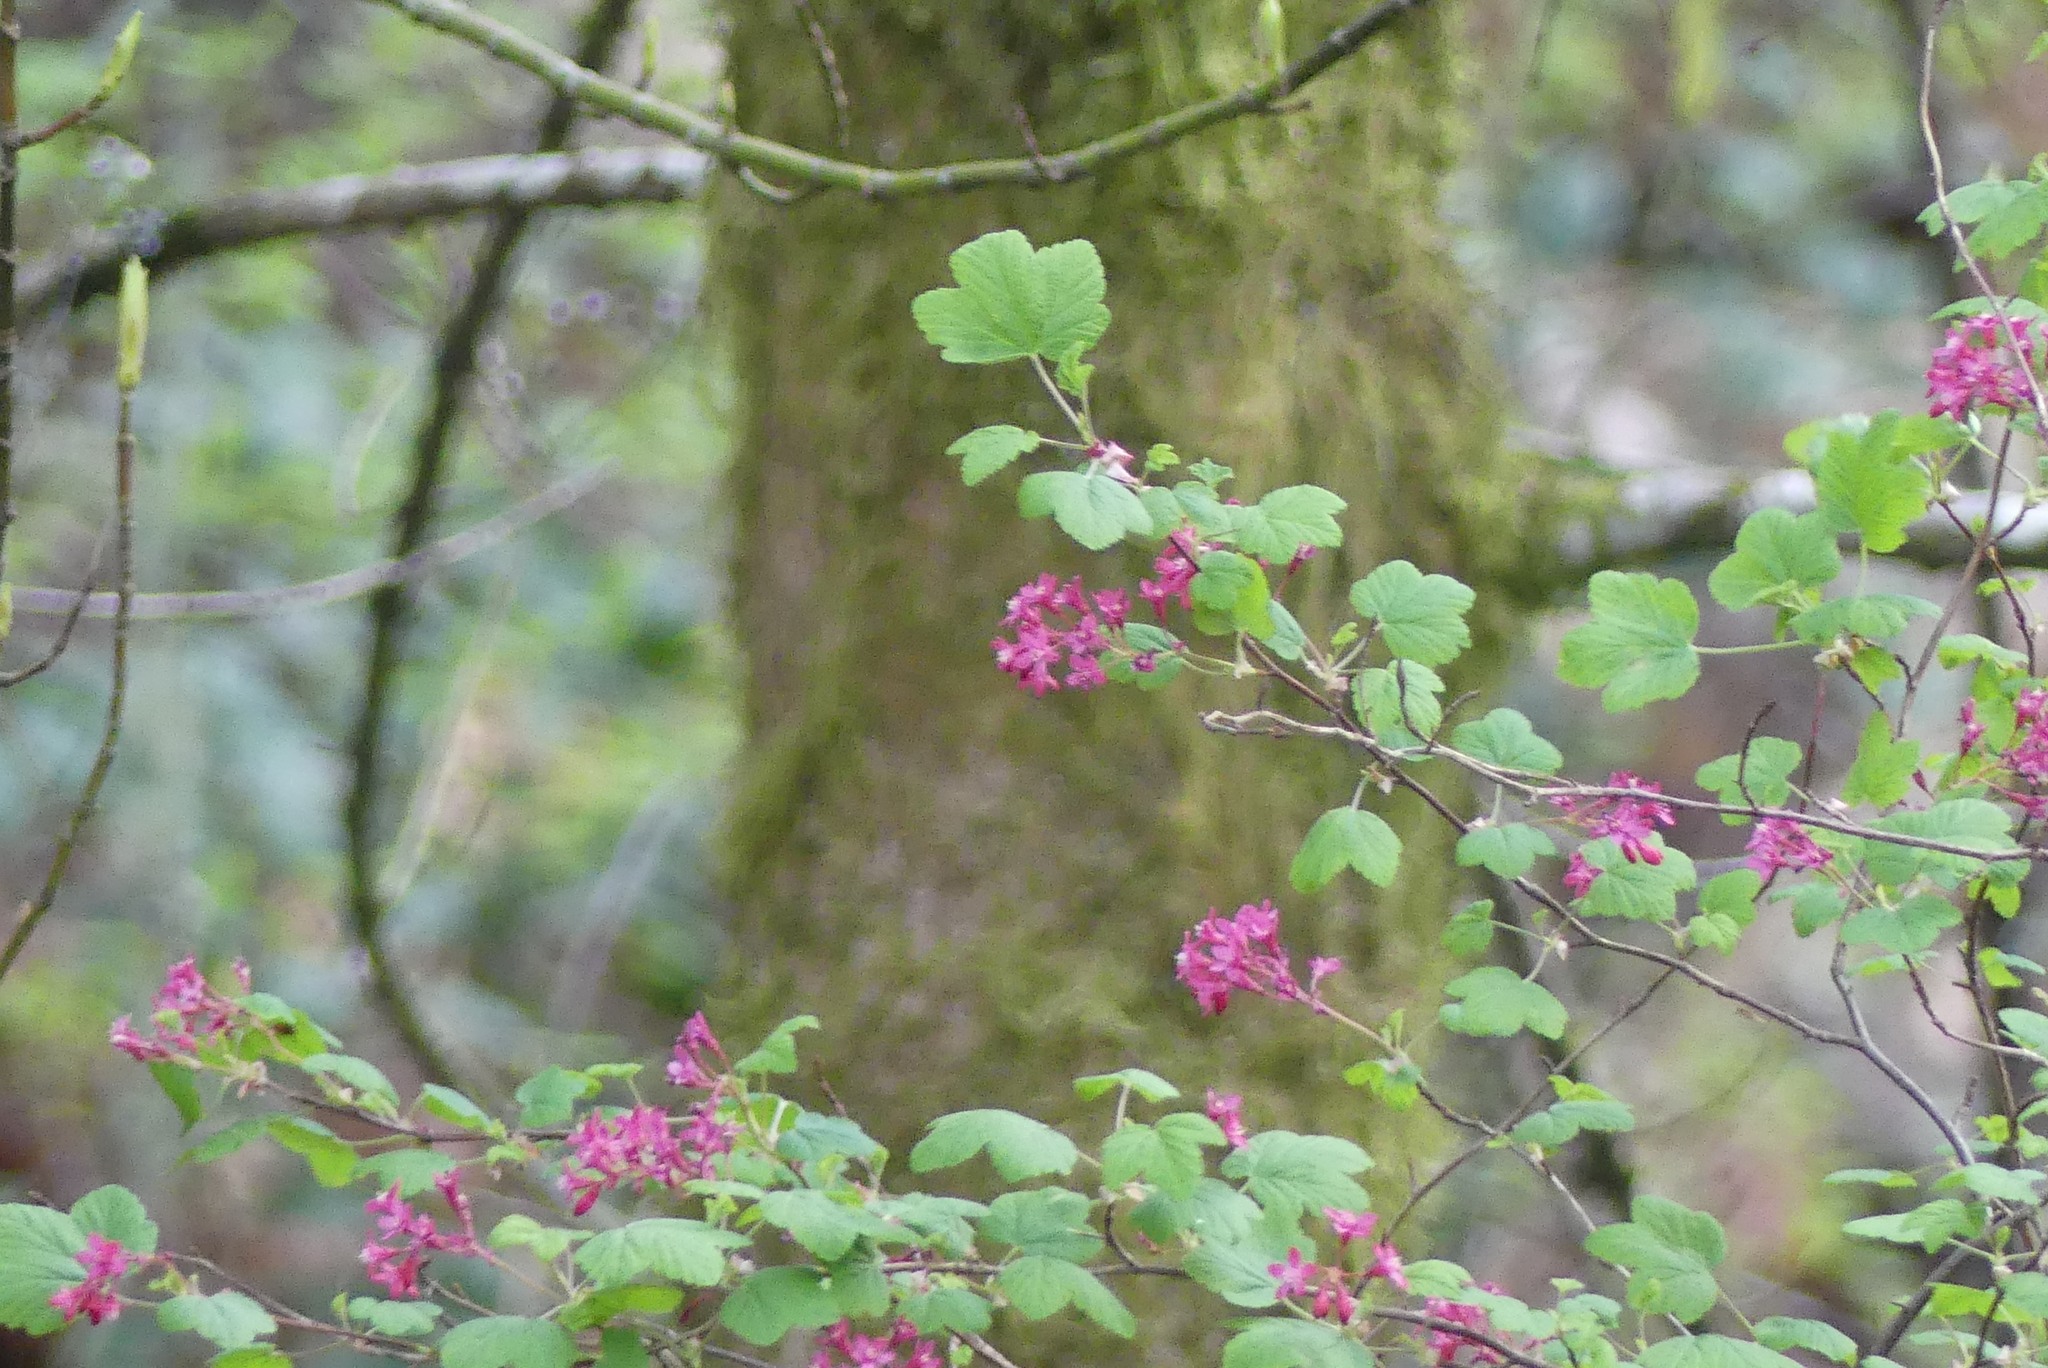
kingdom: Plantae
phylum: Tracheophyta
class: Magnoliopsida
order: Saxifragales
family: Grossulariaceae
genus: Ribes
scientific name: Ribes sanguineum
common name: Flowering currant
